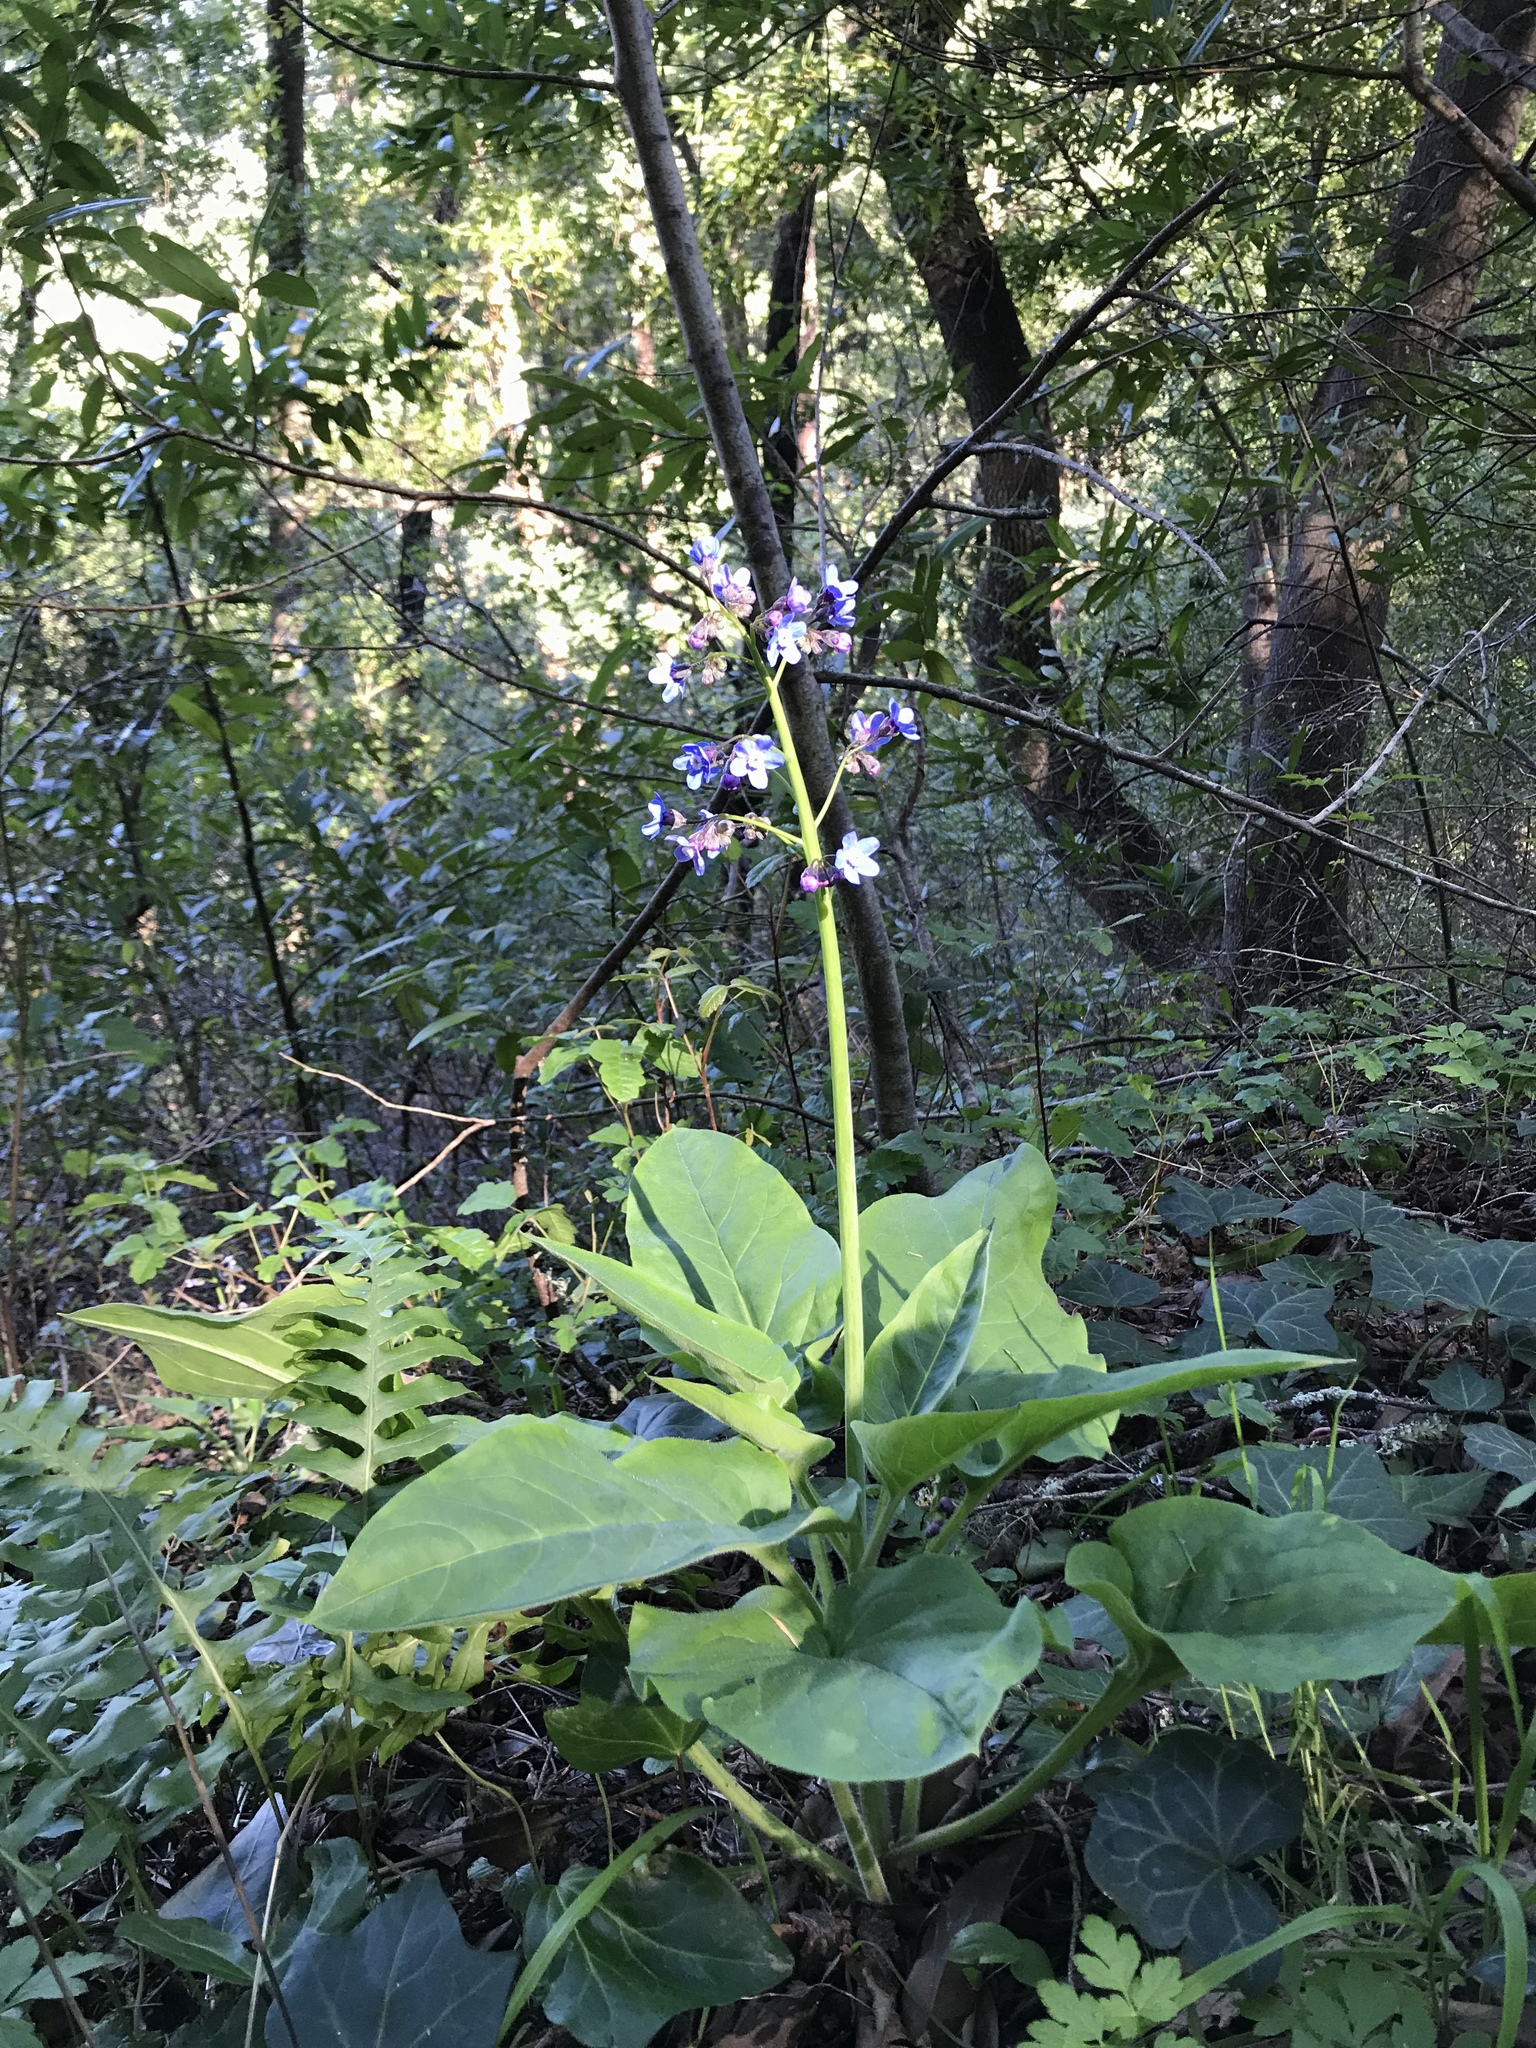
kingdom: Plantae
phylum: Tracheophyta
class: Magnoliopsida
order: Boraginales
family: Boraginaceae
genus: Adelinia
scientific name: Adelinia grande
